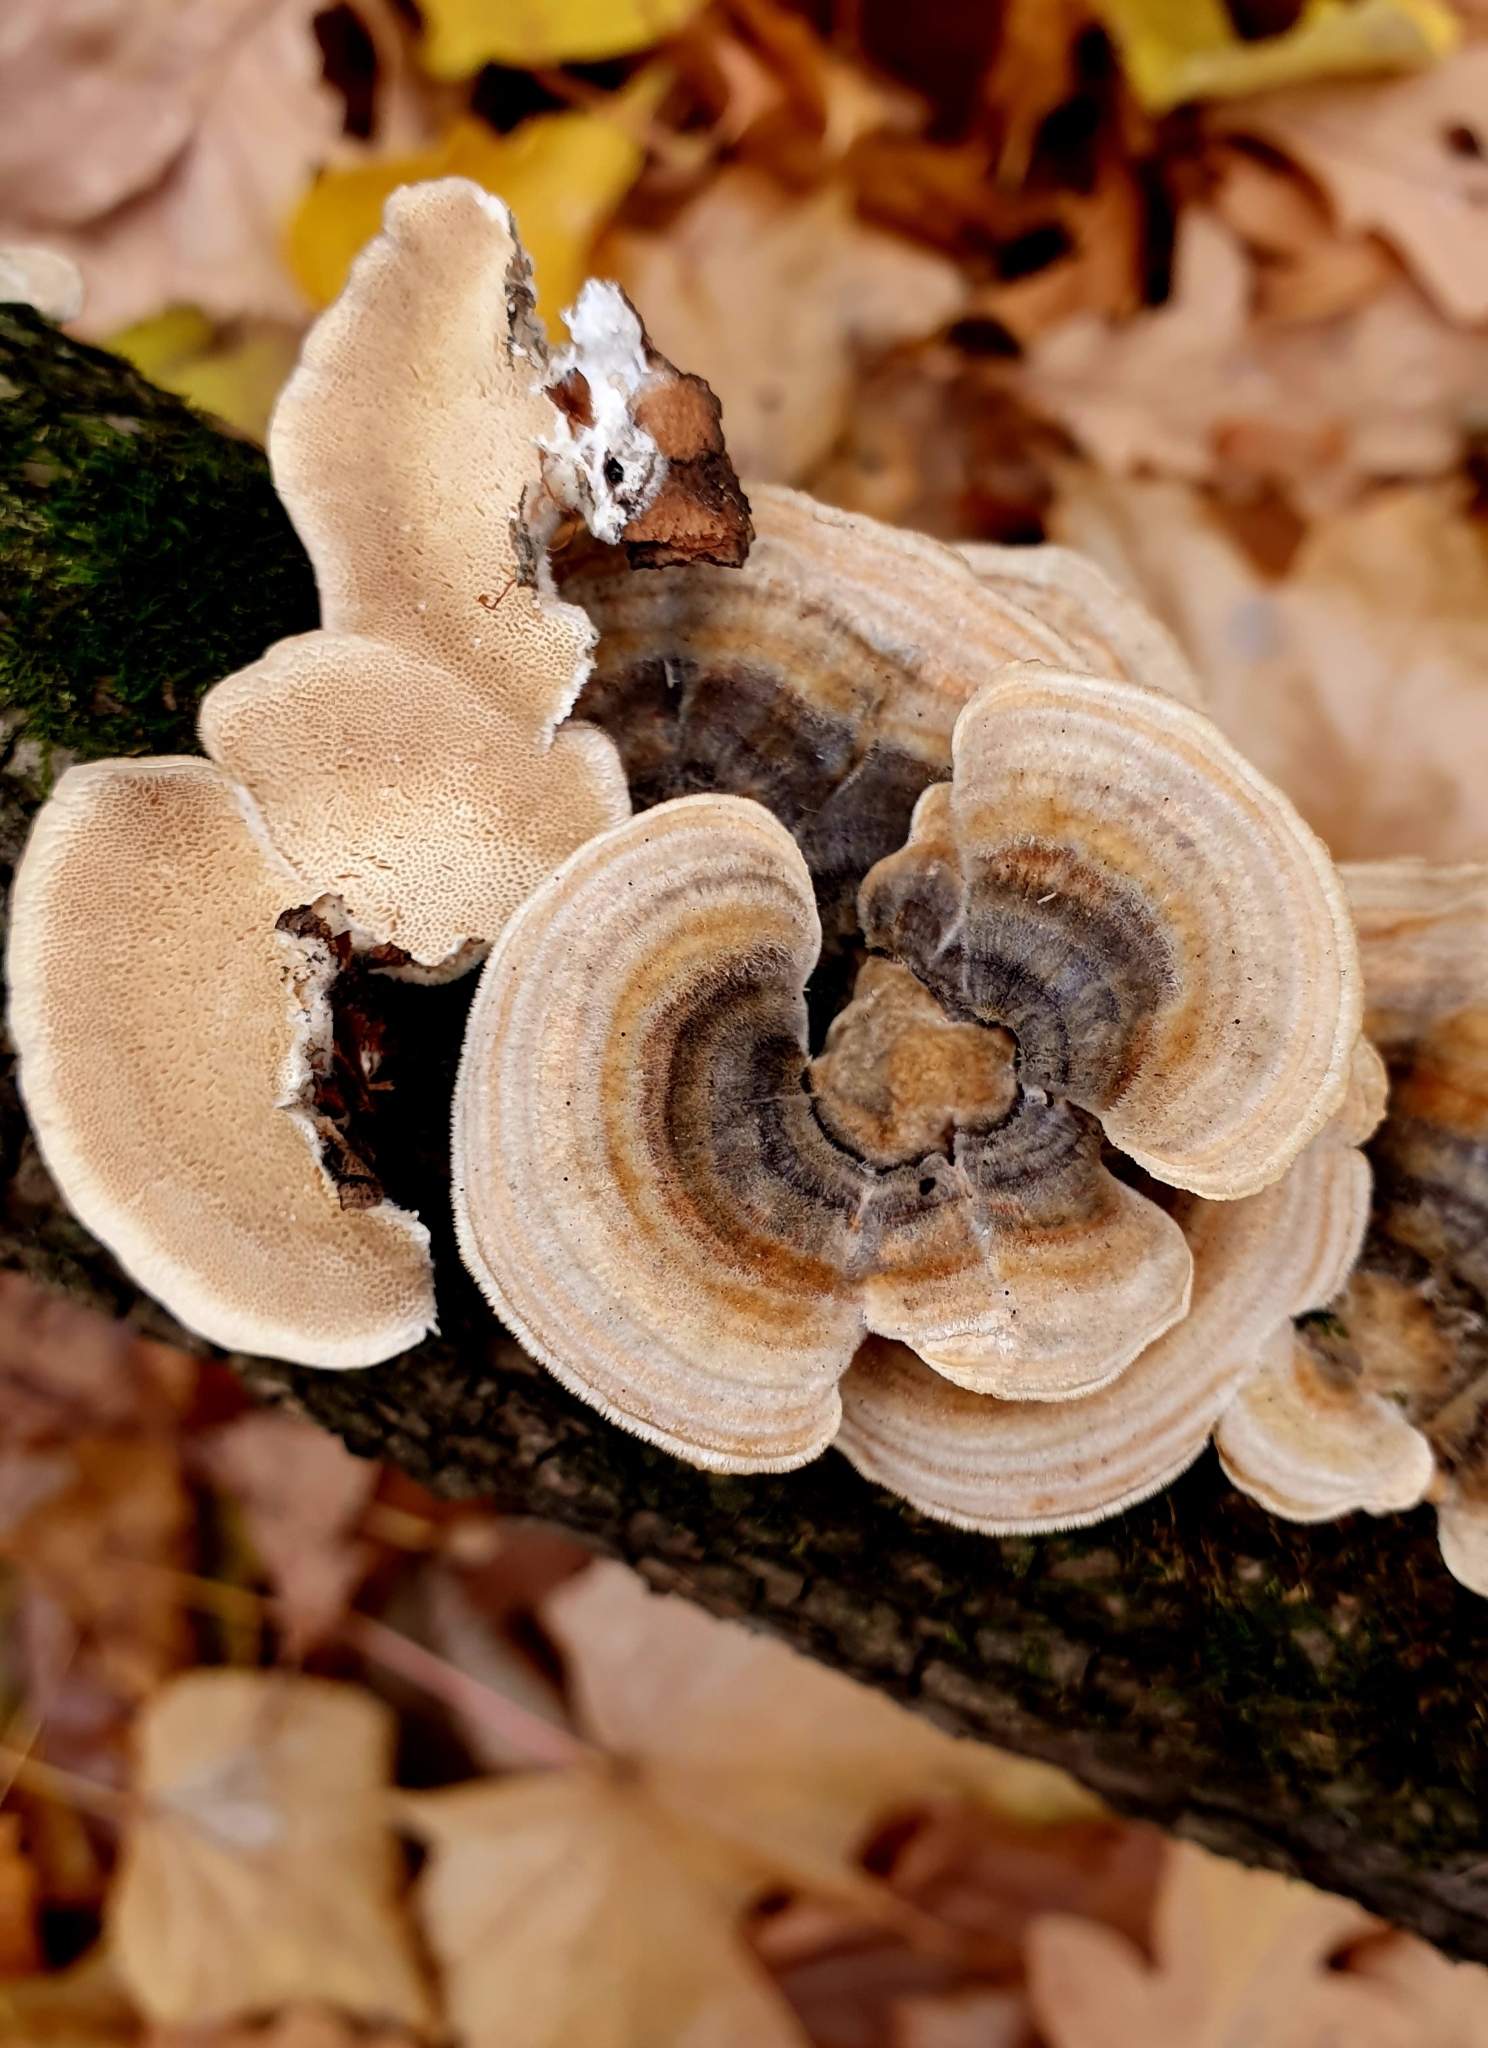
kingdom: Fungi
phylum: Basidiomycota
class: Agaricomycetes
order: Polyporales
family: Polyporaceae
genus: Trametes
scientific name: Trametes versicolor
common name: Turkeytail
